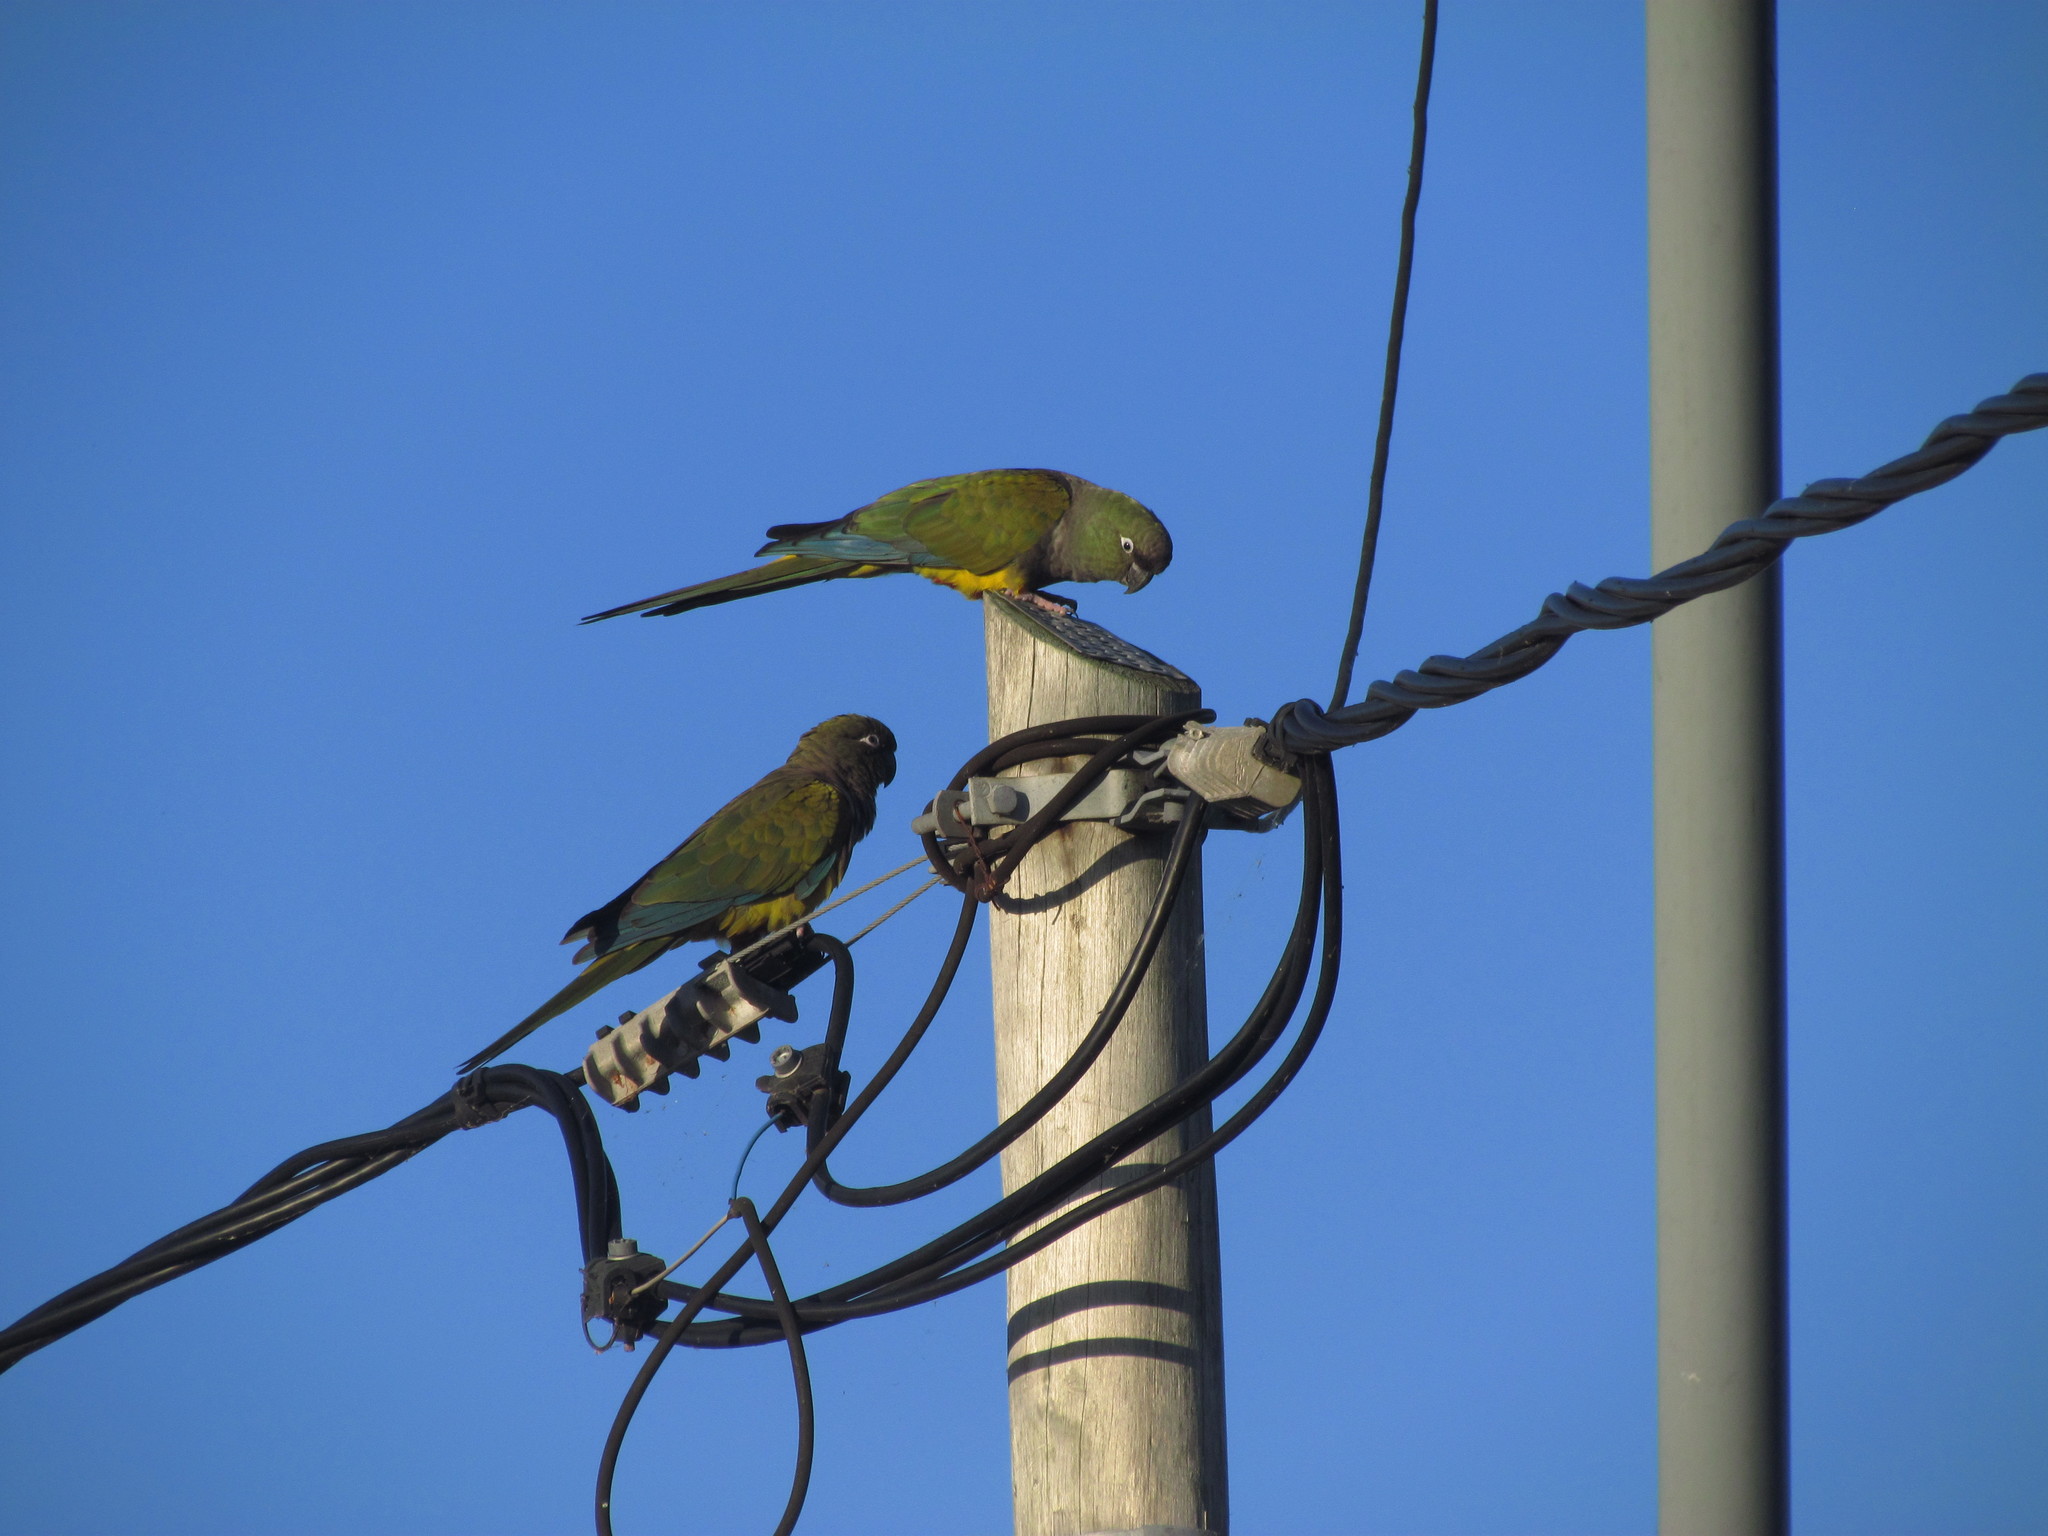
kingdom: Animalia
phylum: Chordata
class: Aves
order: Psittaciformes
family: Psittacidae
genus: Cyanoliseus
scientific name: Cyanoliseus patagonus
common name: Burrowing parrot
